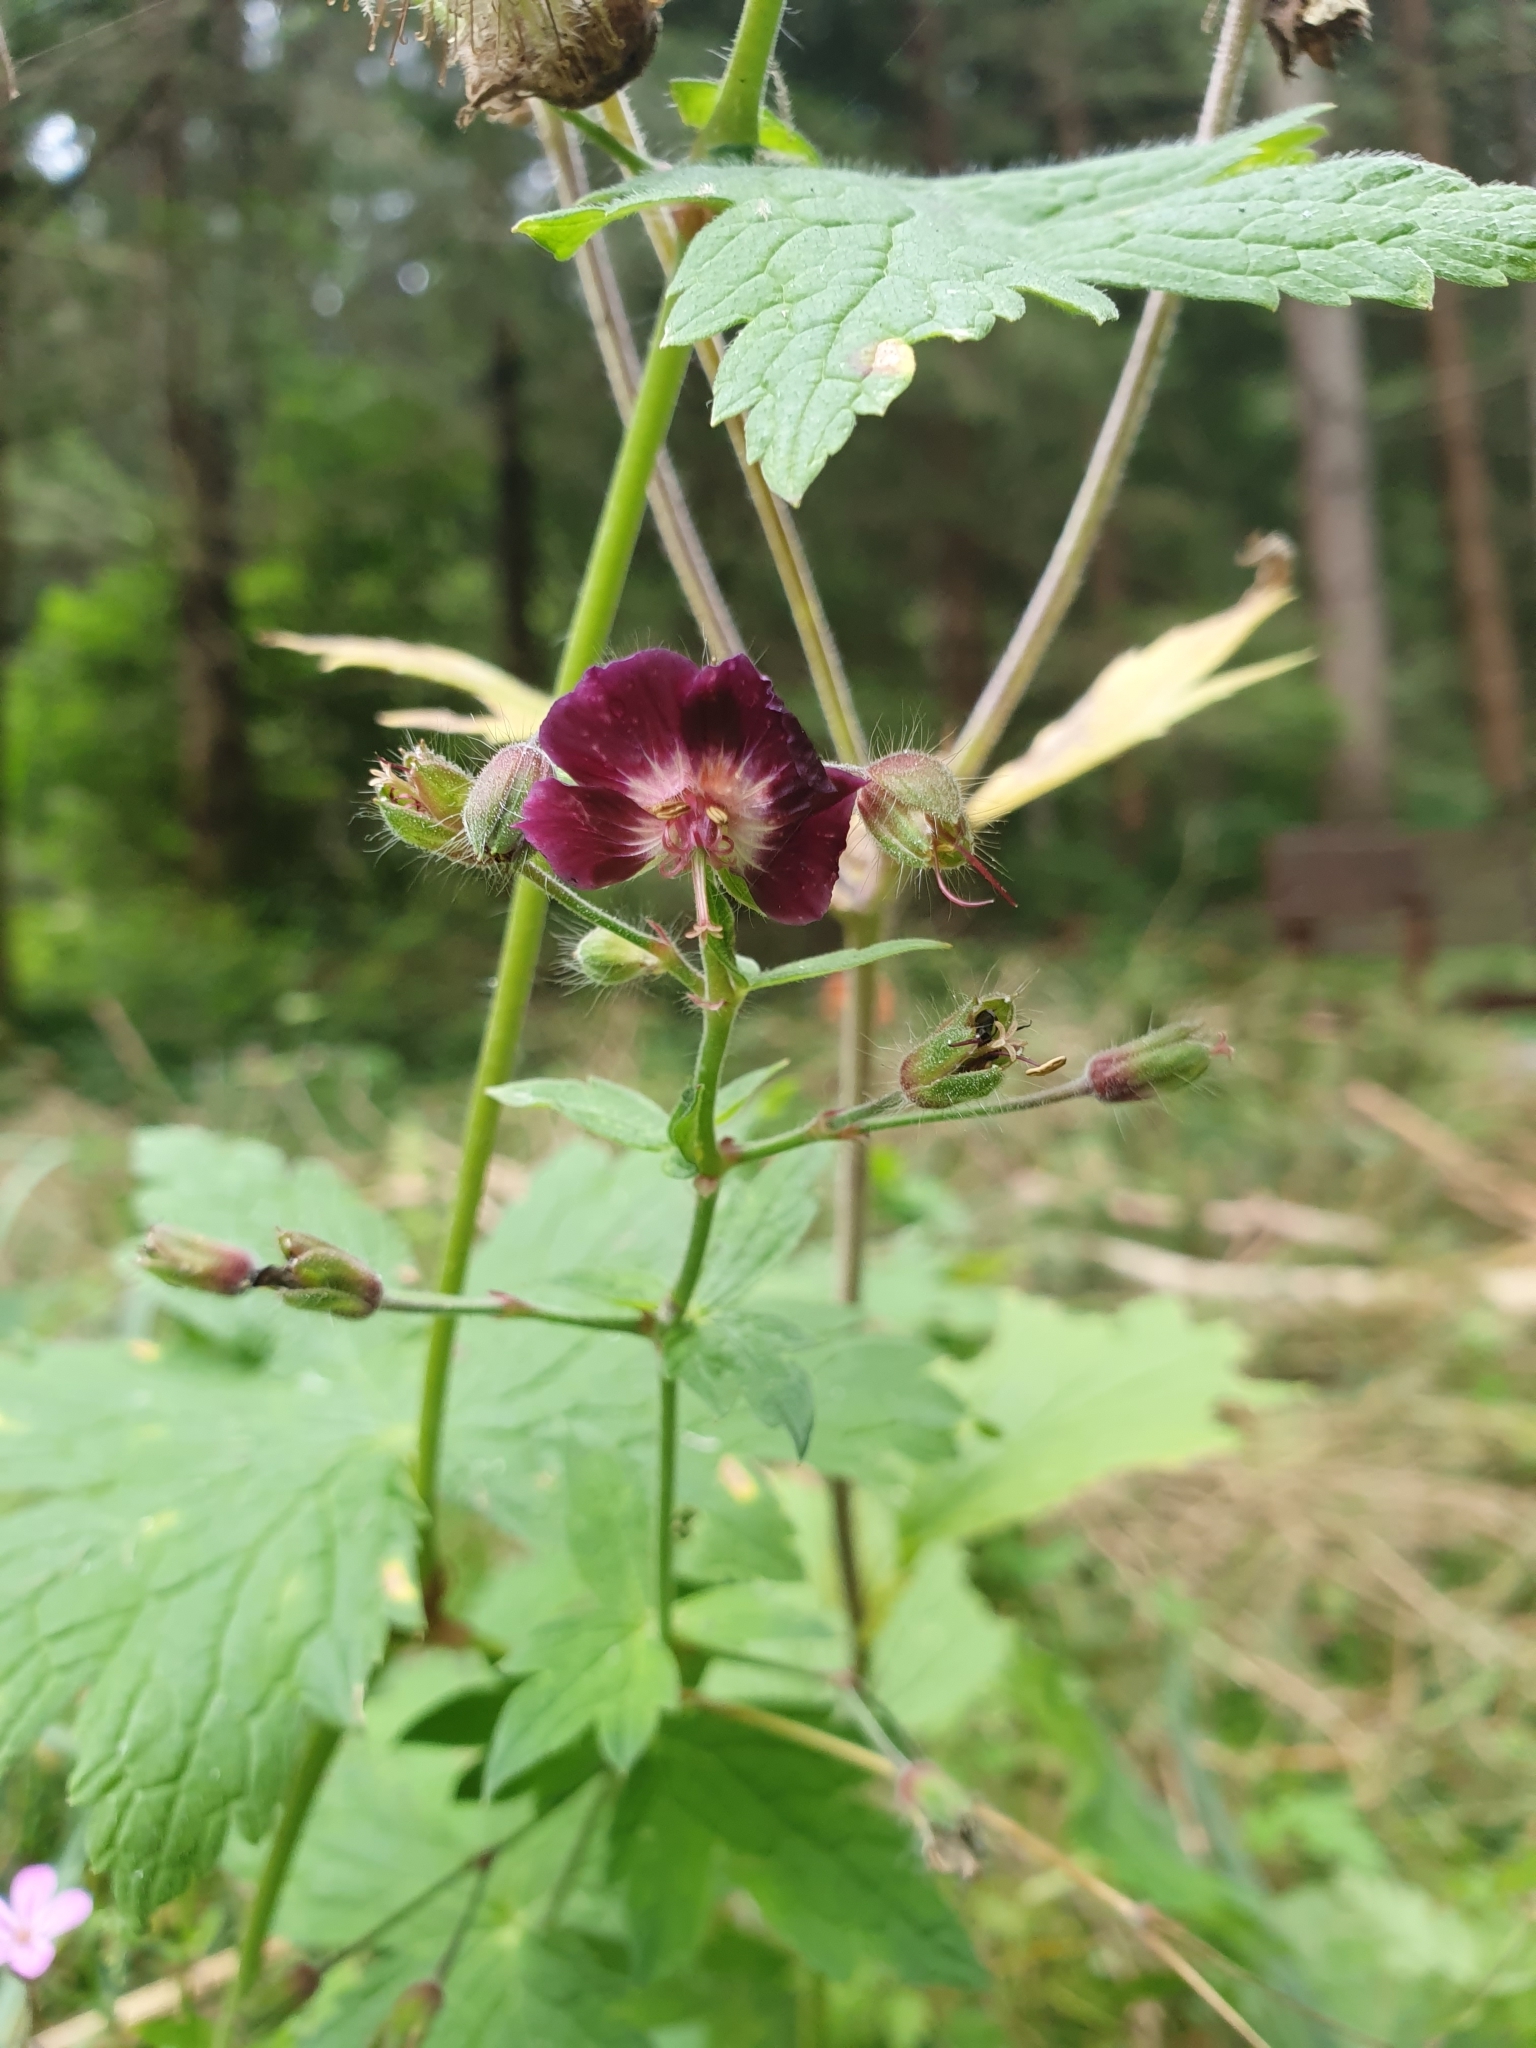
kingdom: Plantae
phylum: Tracheophyta
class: Magnoliopsida
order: Geraniales
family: Geraniaceae
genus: Geranium
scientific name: Geranium phaeum
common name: Dusky crane's-bill
